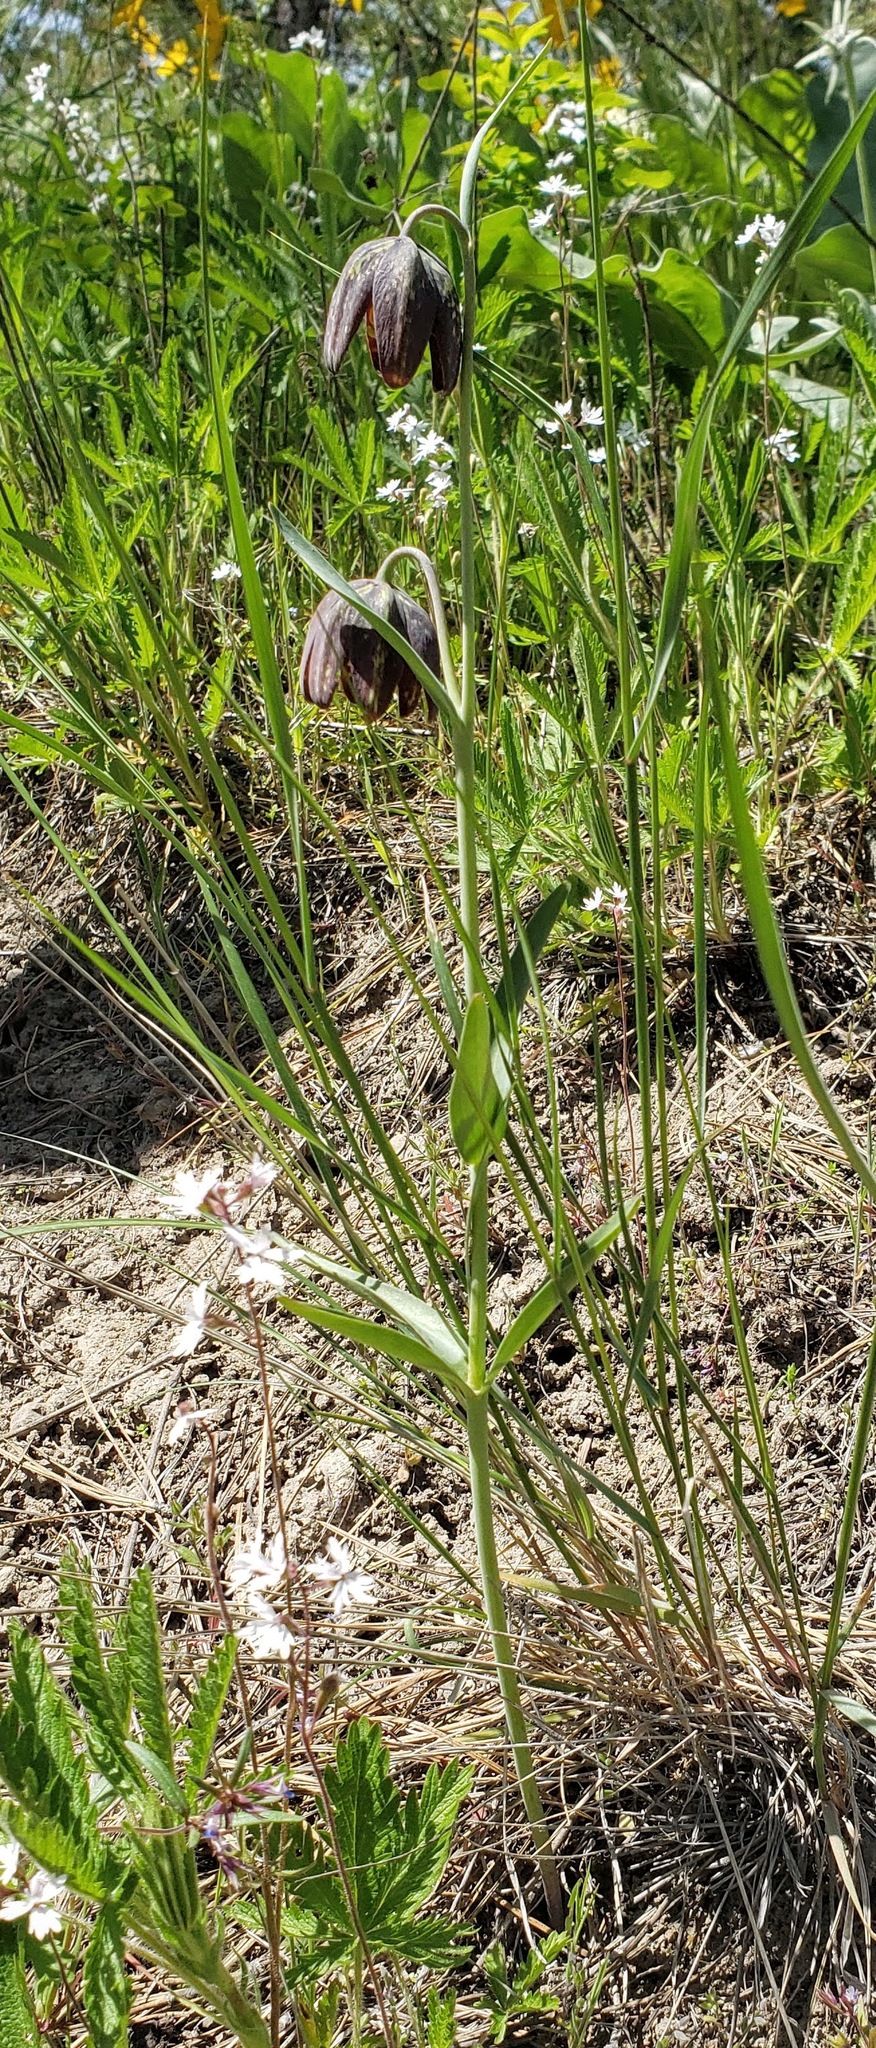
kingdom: Plantae
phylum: Tracheophyta
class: Liliopsida
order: Liliales
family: Liliaceae
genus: Fritillaria
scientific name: Fritillaria affinis
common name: Ojai fritillary
